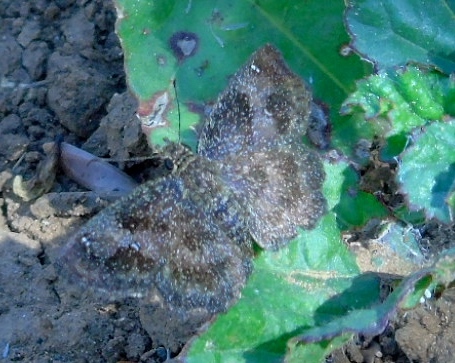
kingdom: Animalia
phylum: Arthropoda
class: Insecta
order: Lepidoptera
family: Hesperiidae
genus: Staphylus
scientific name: Staphylus
